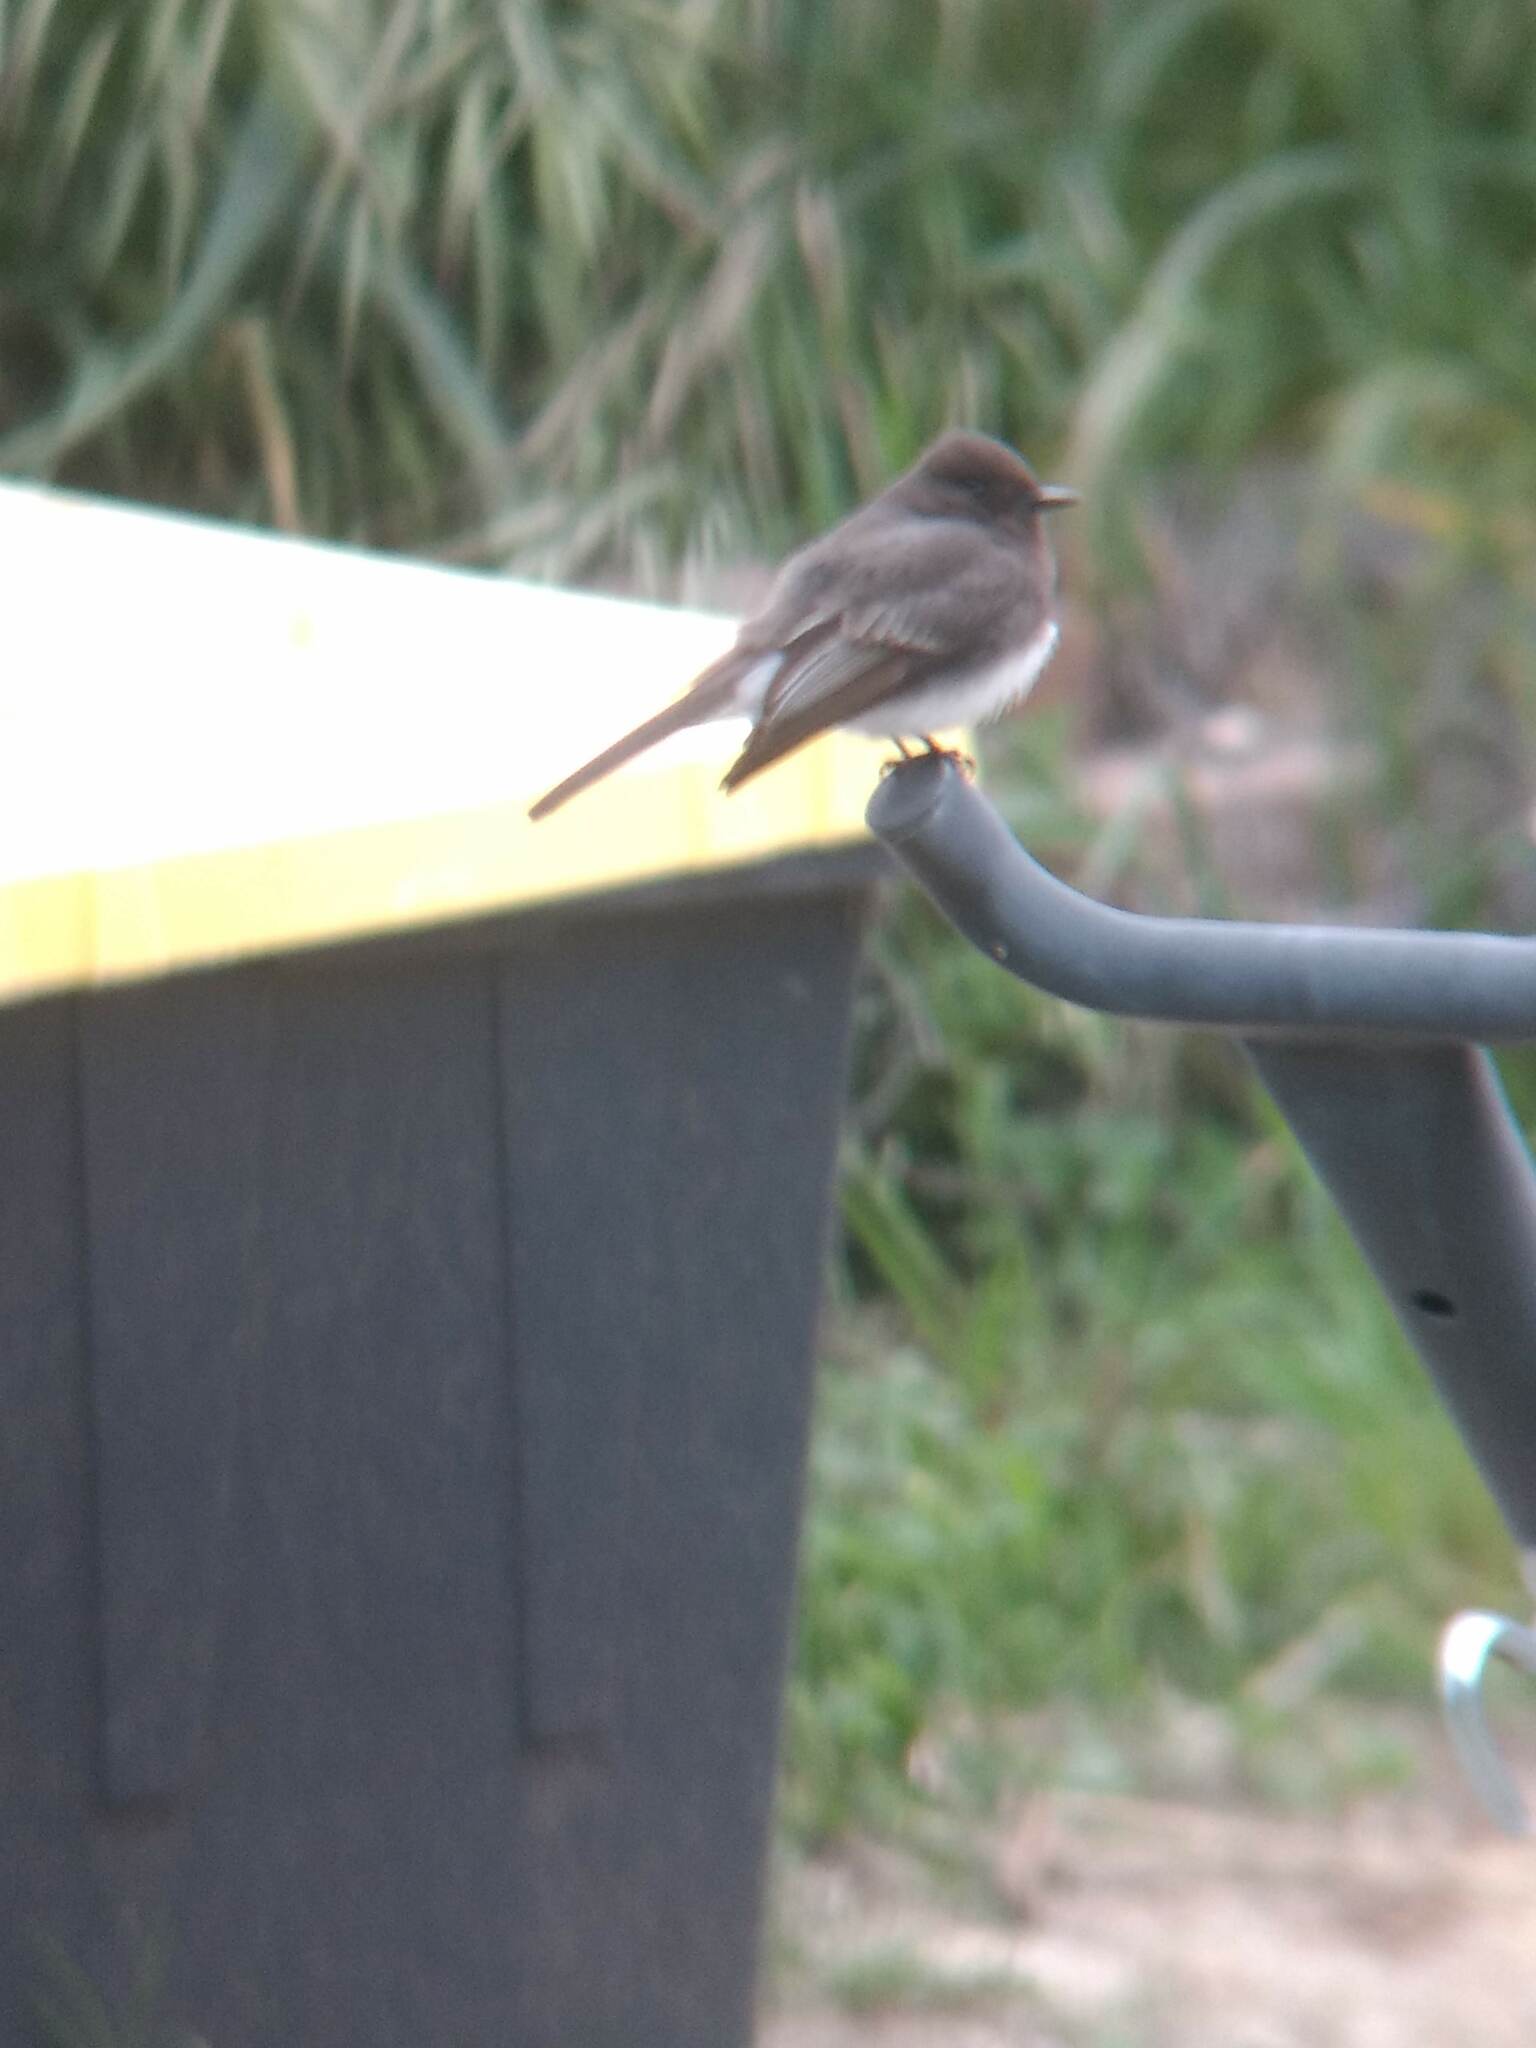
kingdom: Animalia
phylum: Chordata
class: Aves
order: Passeriformes
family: Tyrannidae
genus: Sayornis
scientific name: Sayornis nigricans
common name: Black phoebe
